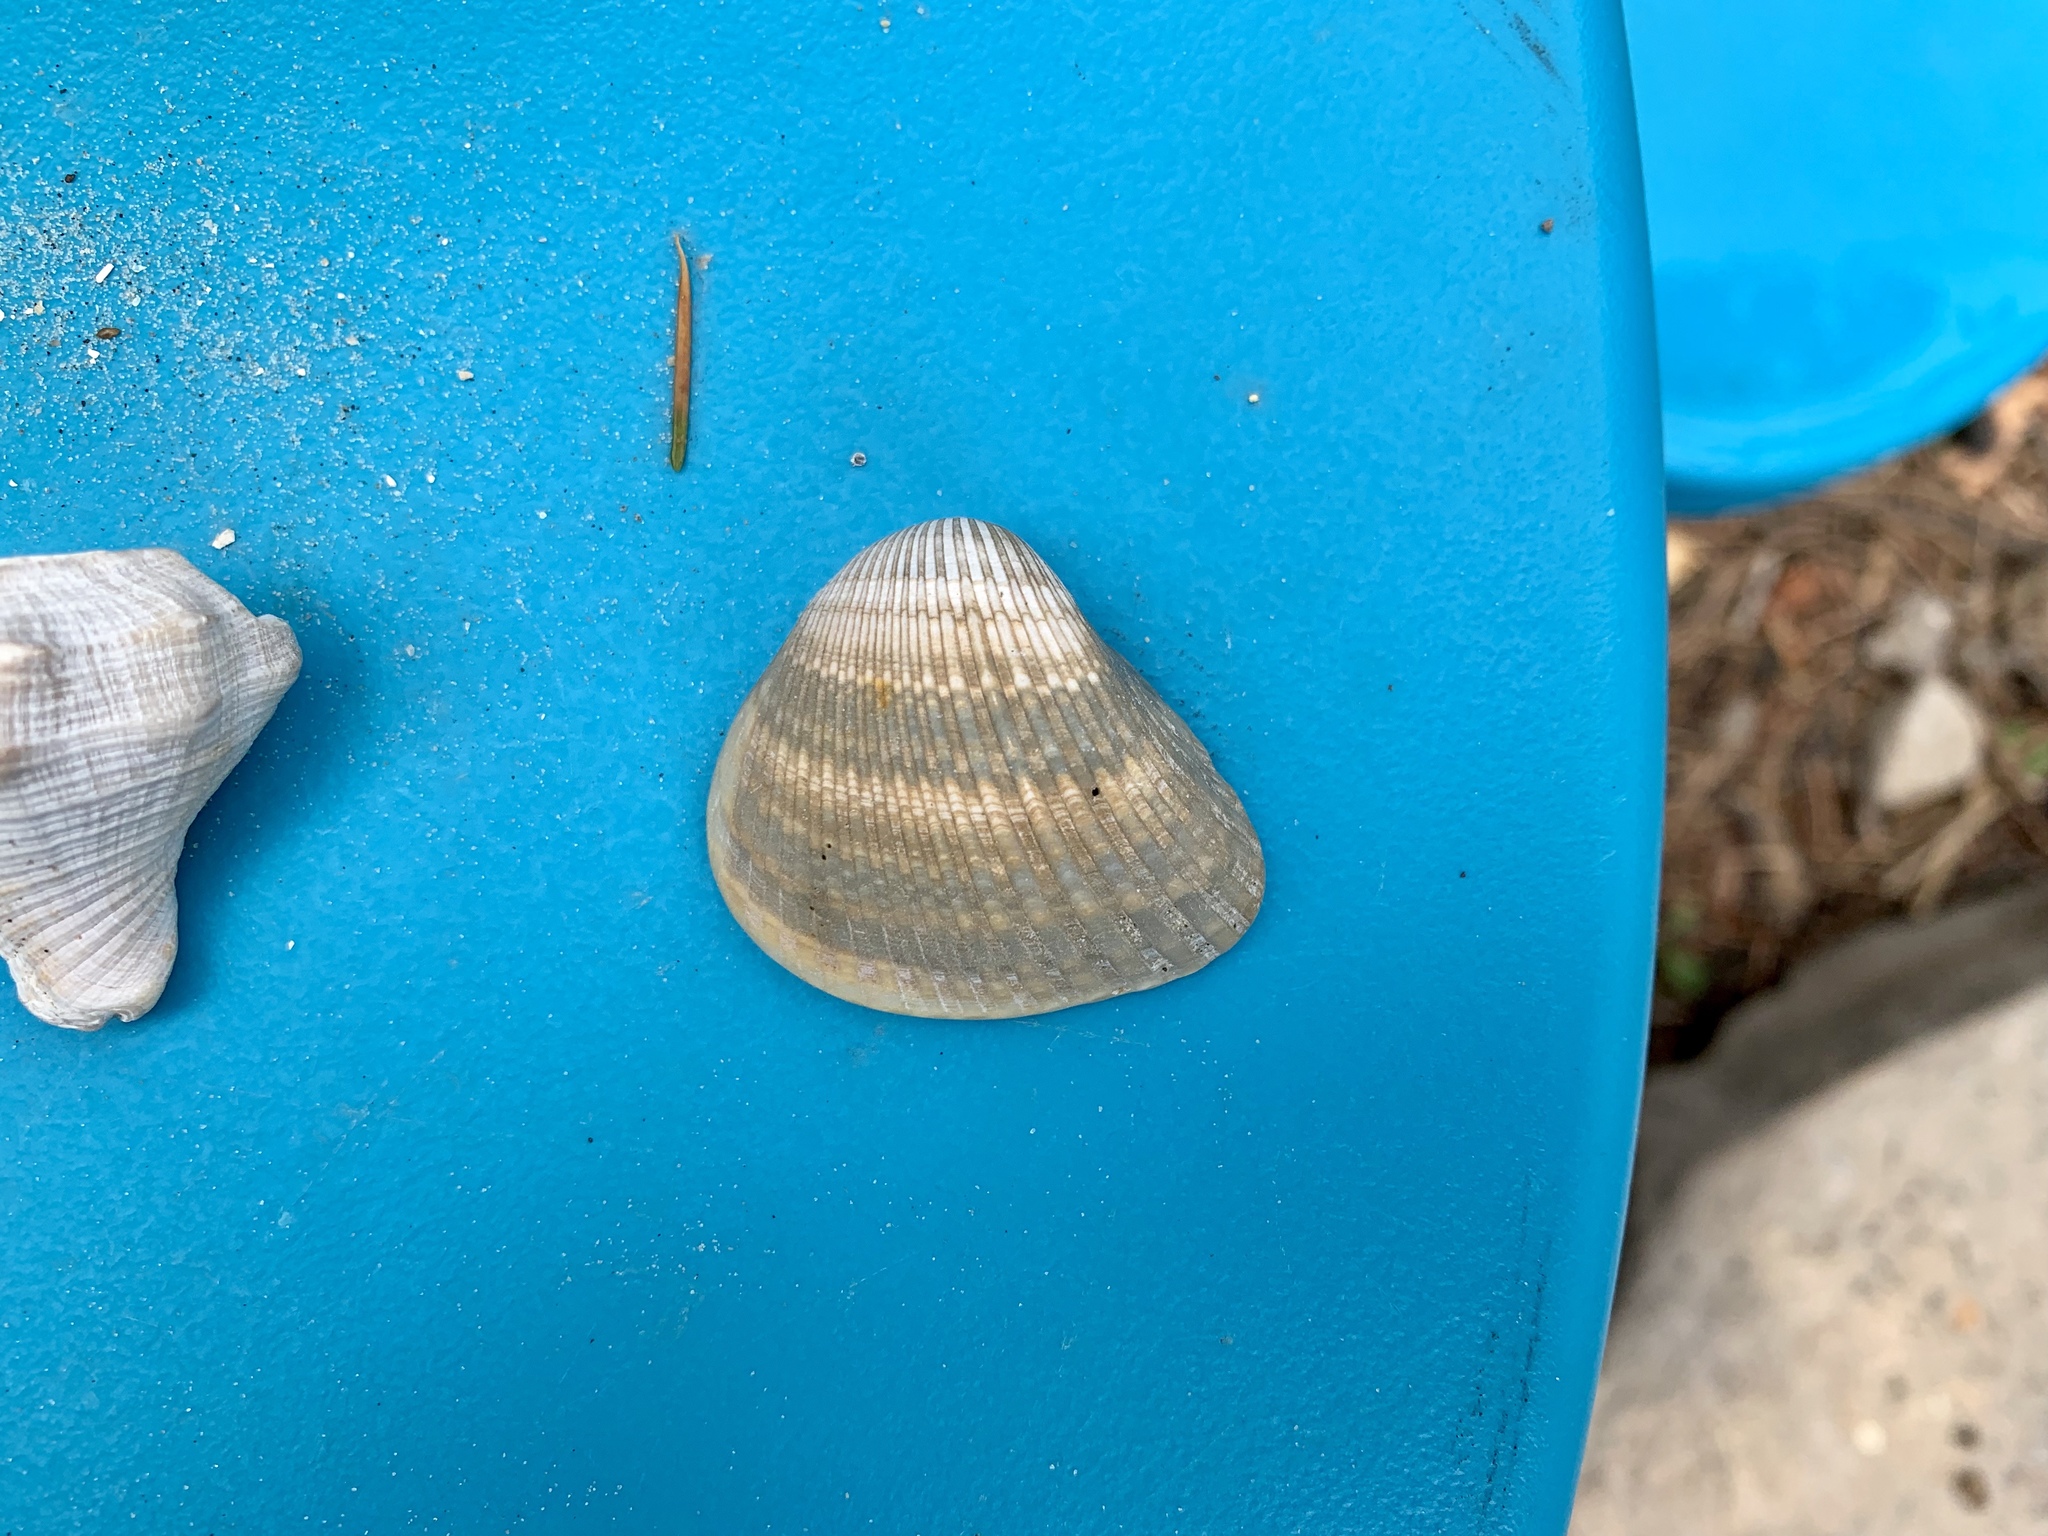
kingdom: Animalia
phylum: Mollusca
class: Bivalvia
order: Arcida
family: Noetiidae
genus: Noetia
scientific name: Noetia ponderosa
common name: Ponderous ark
